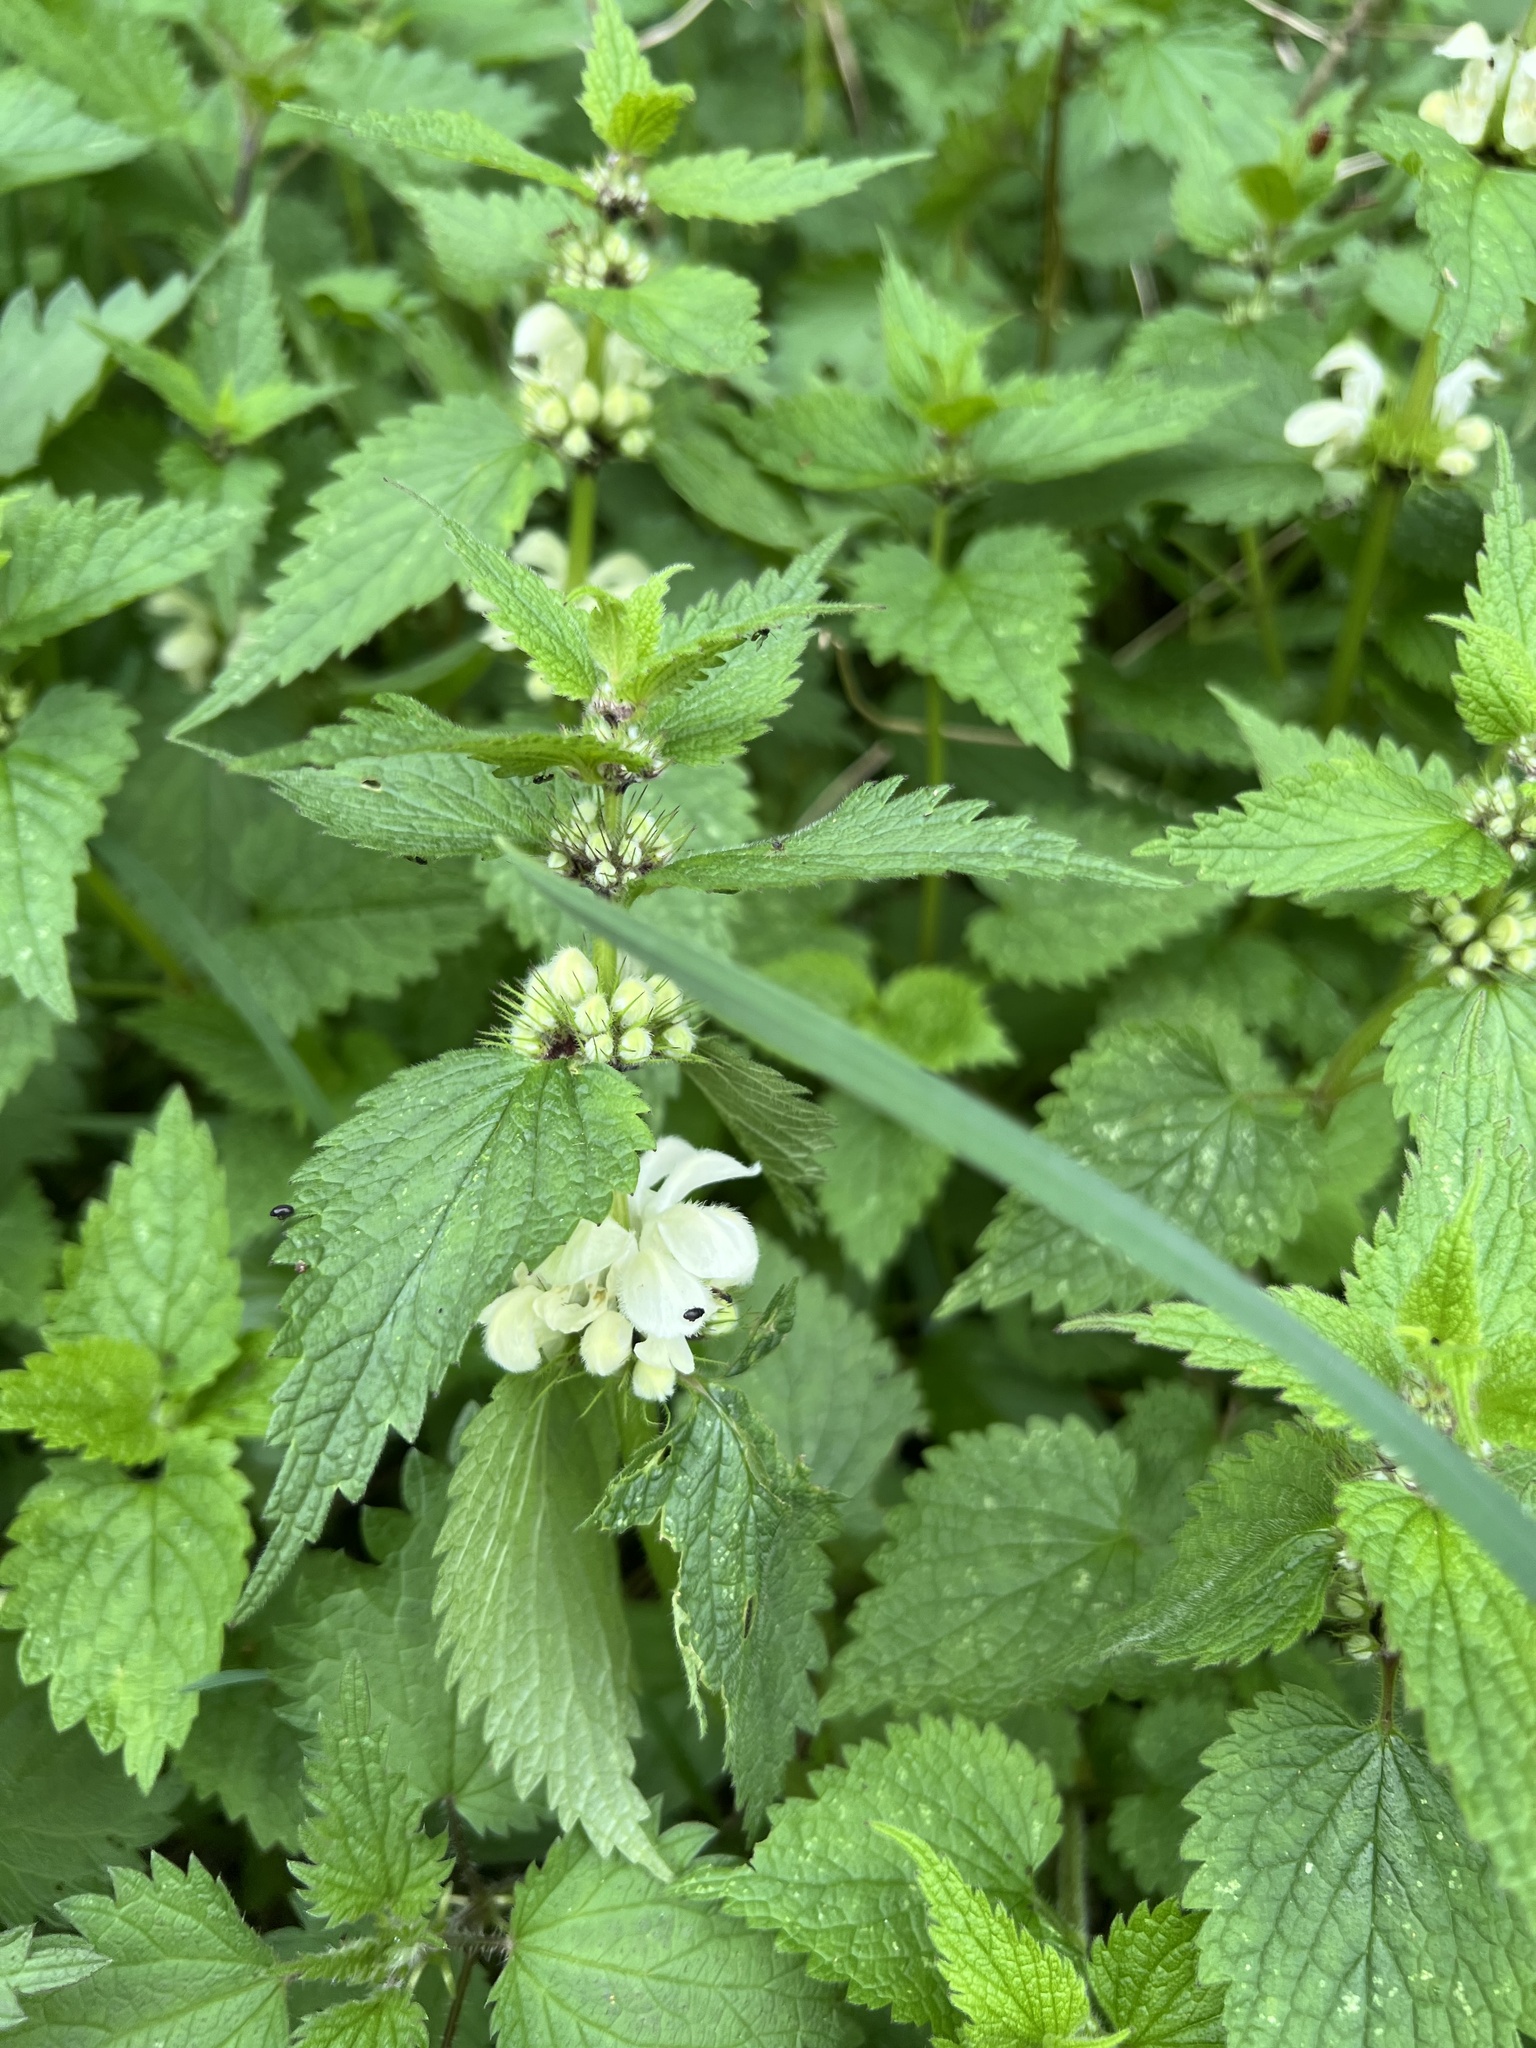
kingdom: Plantae
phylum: Tracheophyta
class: Magnoliopsida
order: Lamiales
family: Lamiaceae
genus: Lamium
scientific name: Lamium album
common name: White dead-nettle
